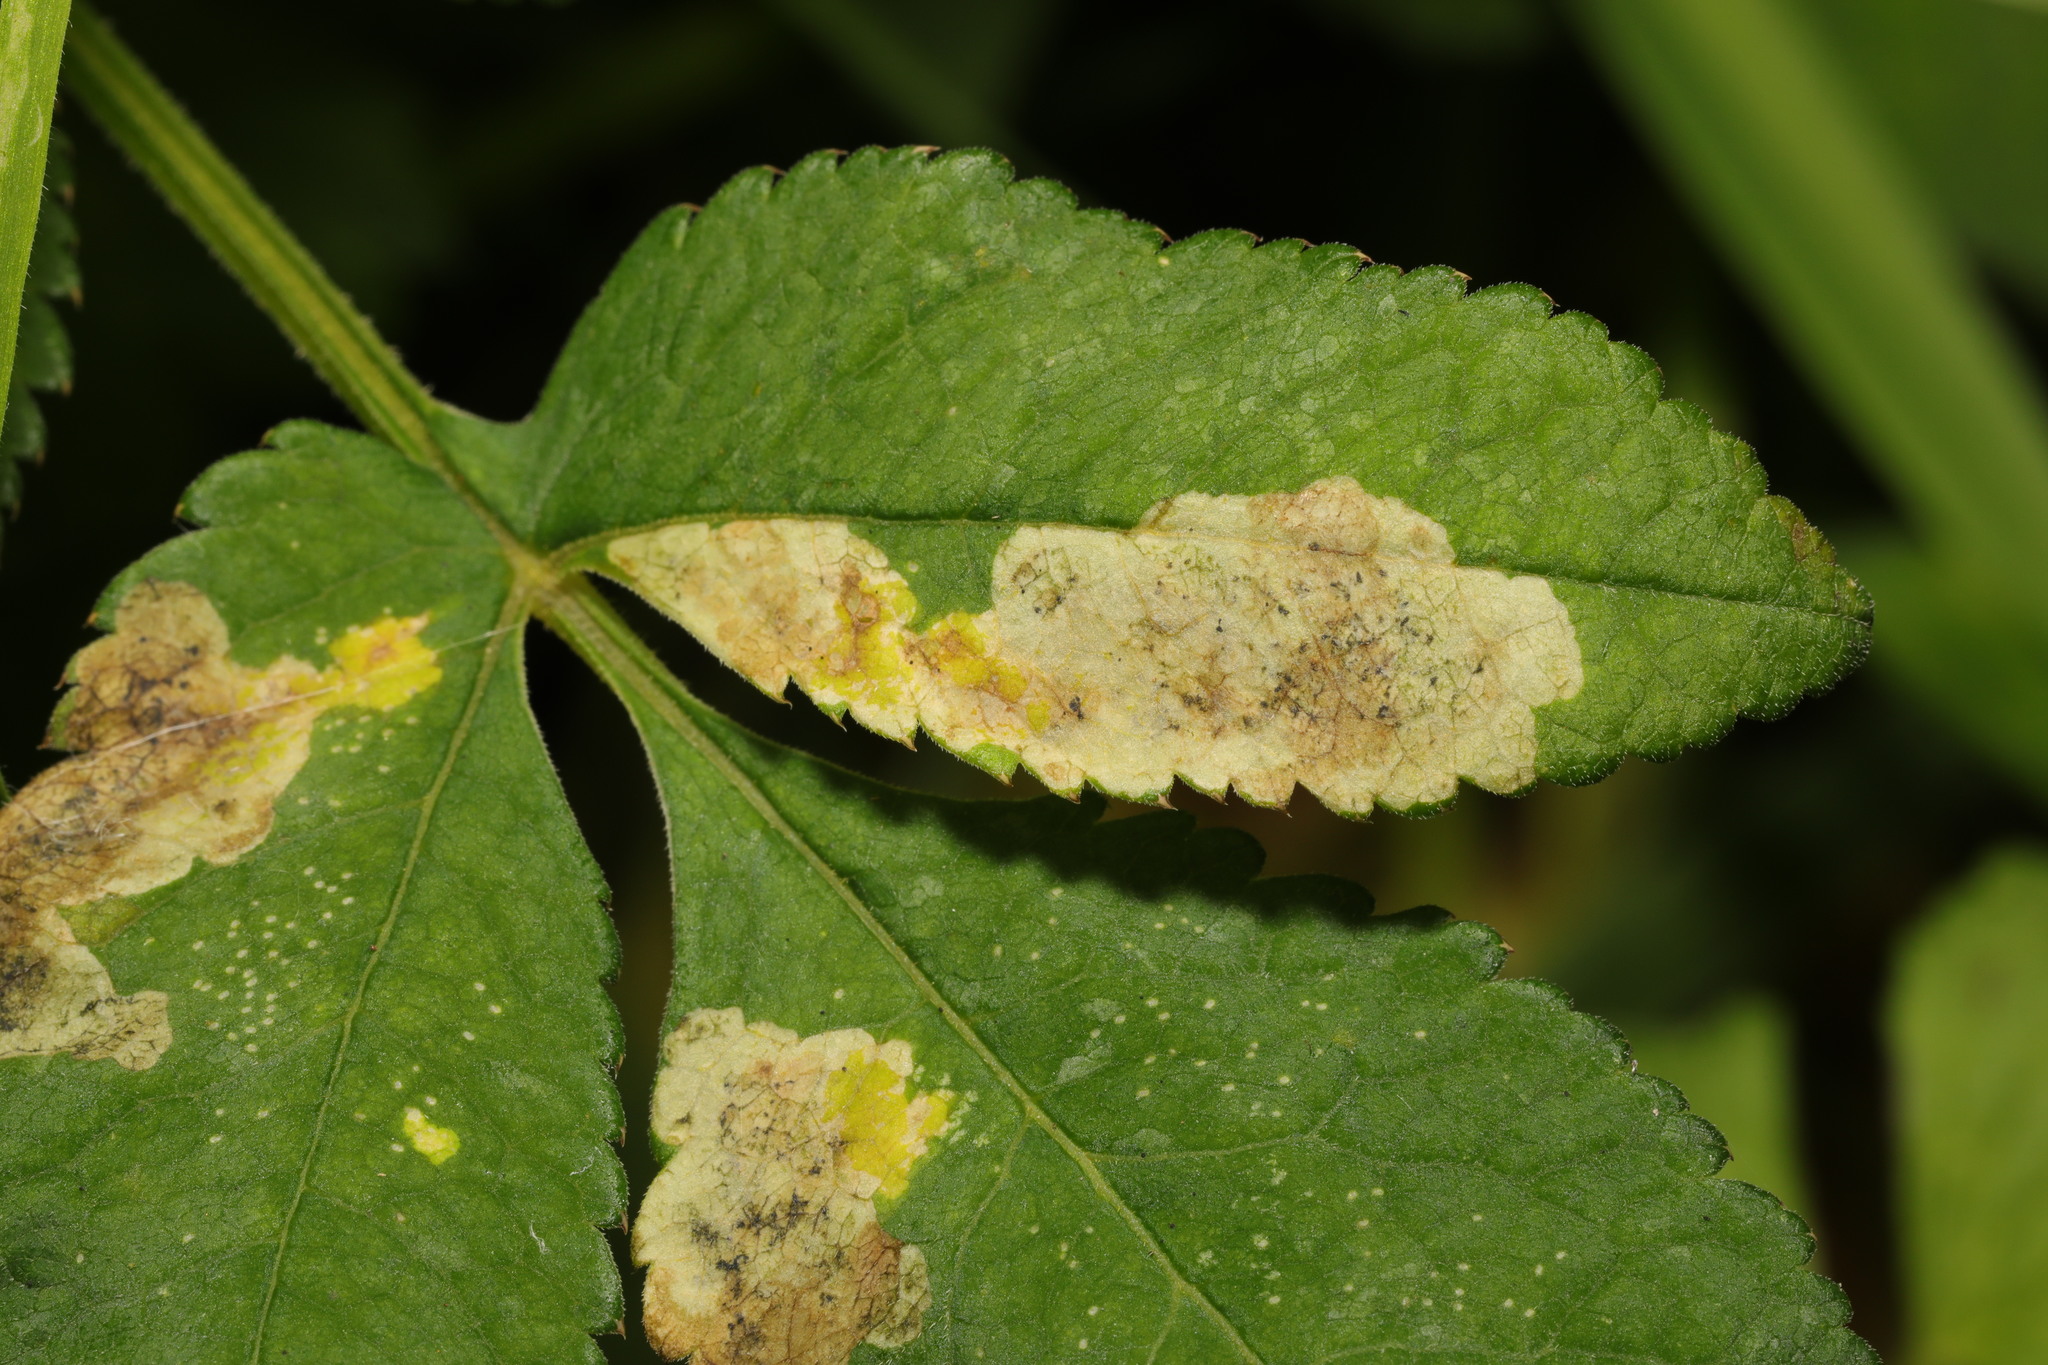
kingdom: Animalia
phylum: Arthropoda
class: Insecta
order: Diptera
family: Agromyzidae
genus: Phytomyza
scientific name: Phytomyza angelicae
